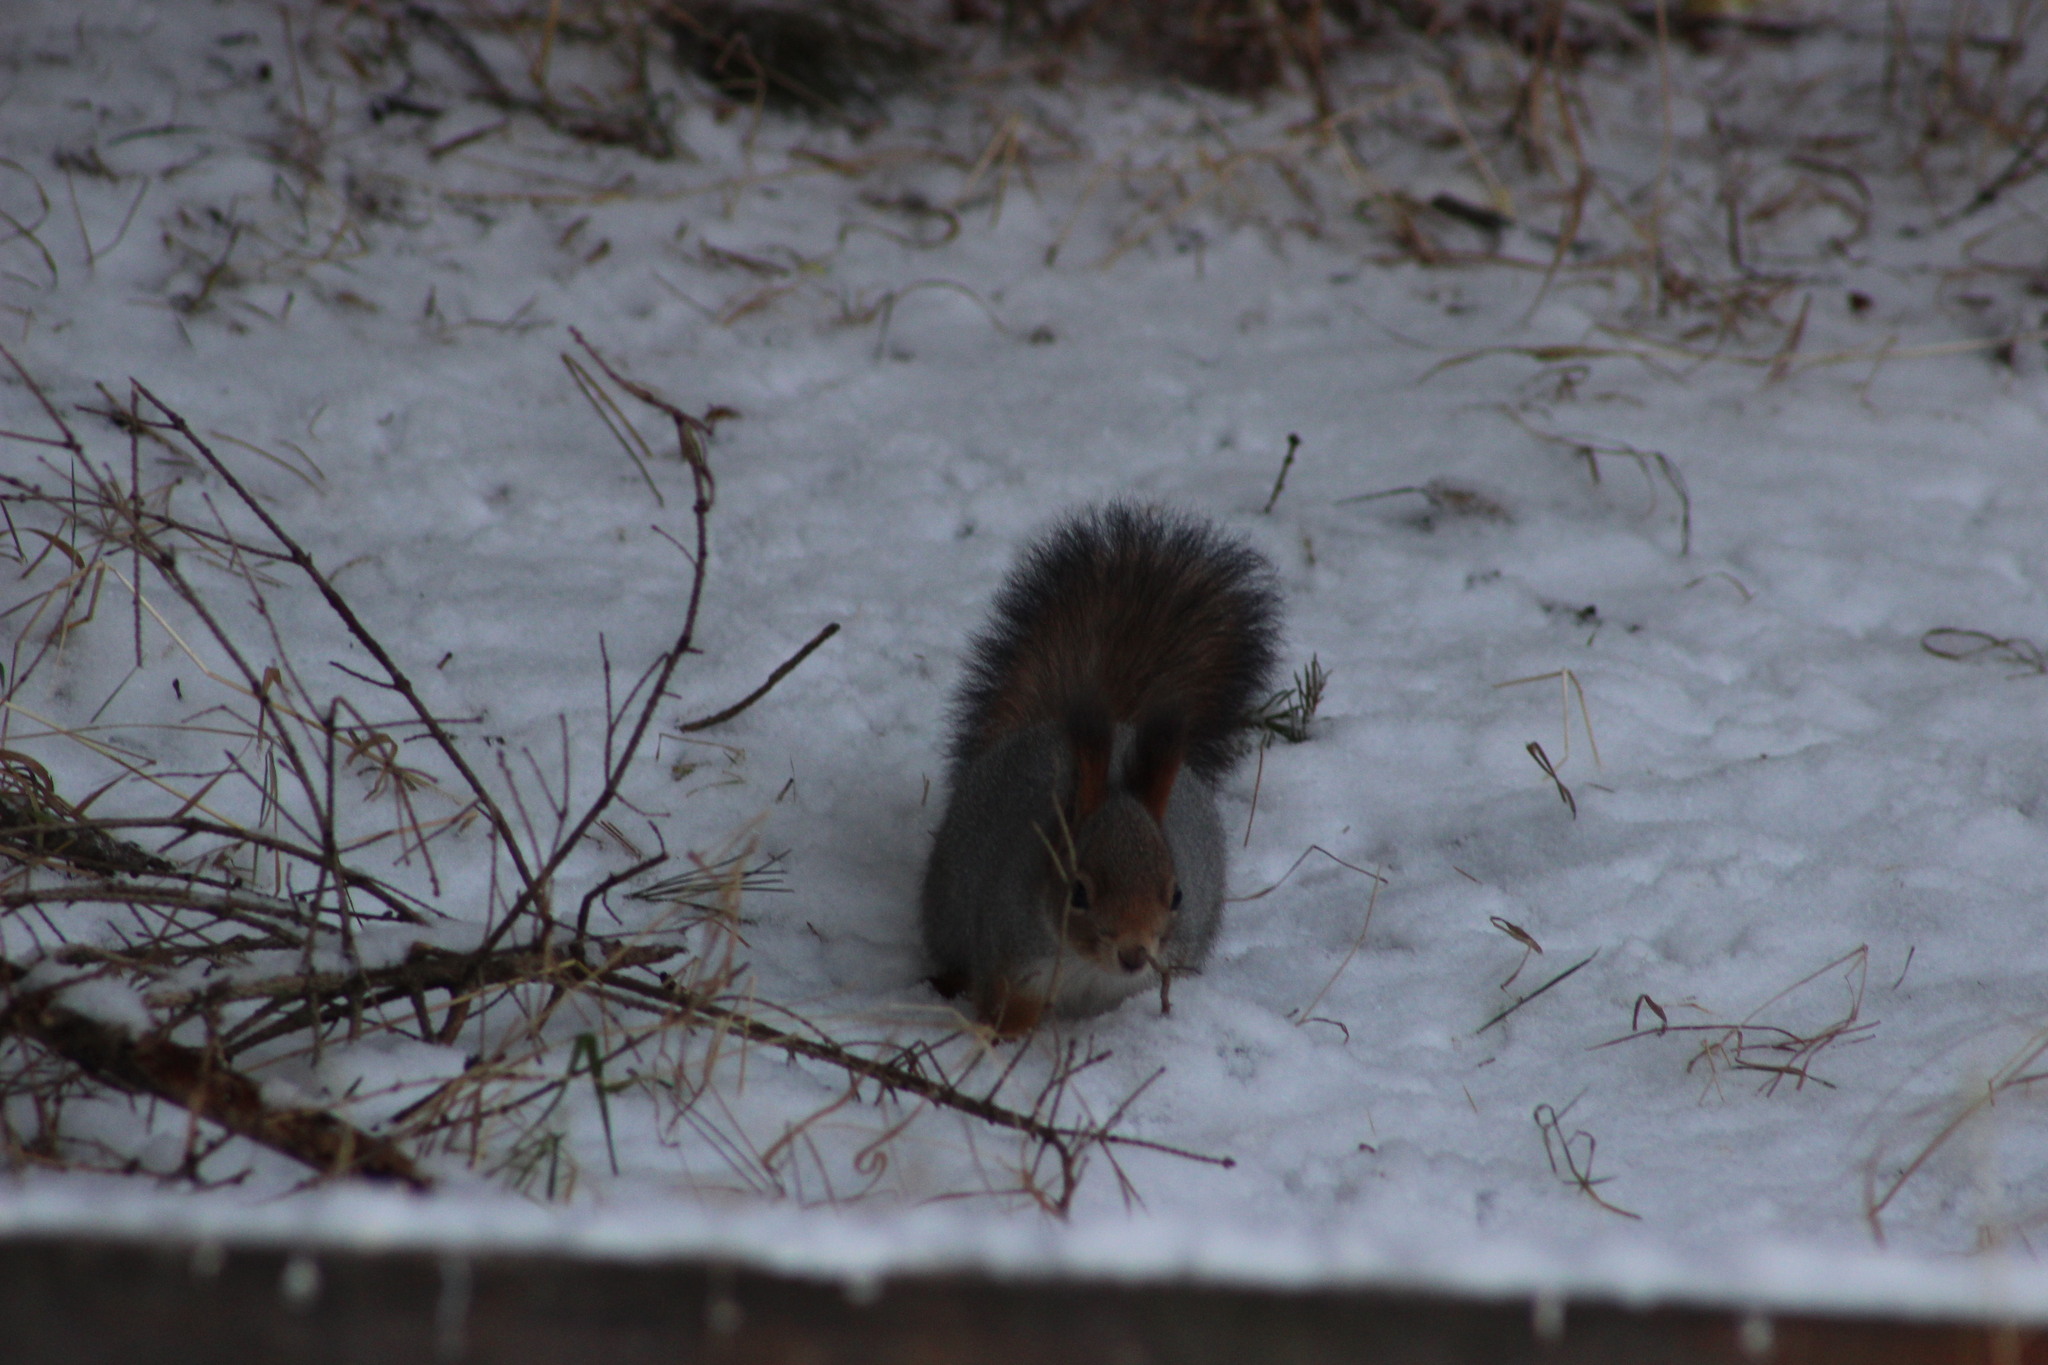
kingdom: Animalia
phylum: Chordata
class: Mammalia
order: Rodentia
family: Sciuridae
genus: Sciurus
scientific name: Sciurus vulgaris
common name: Eurasian red squirrel
